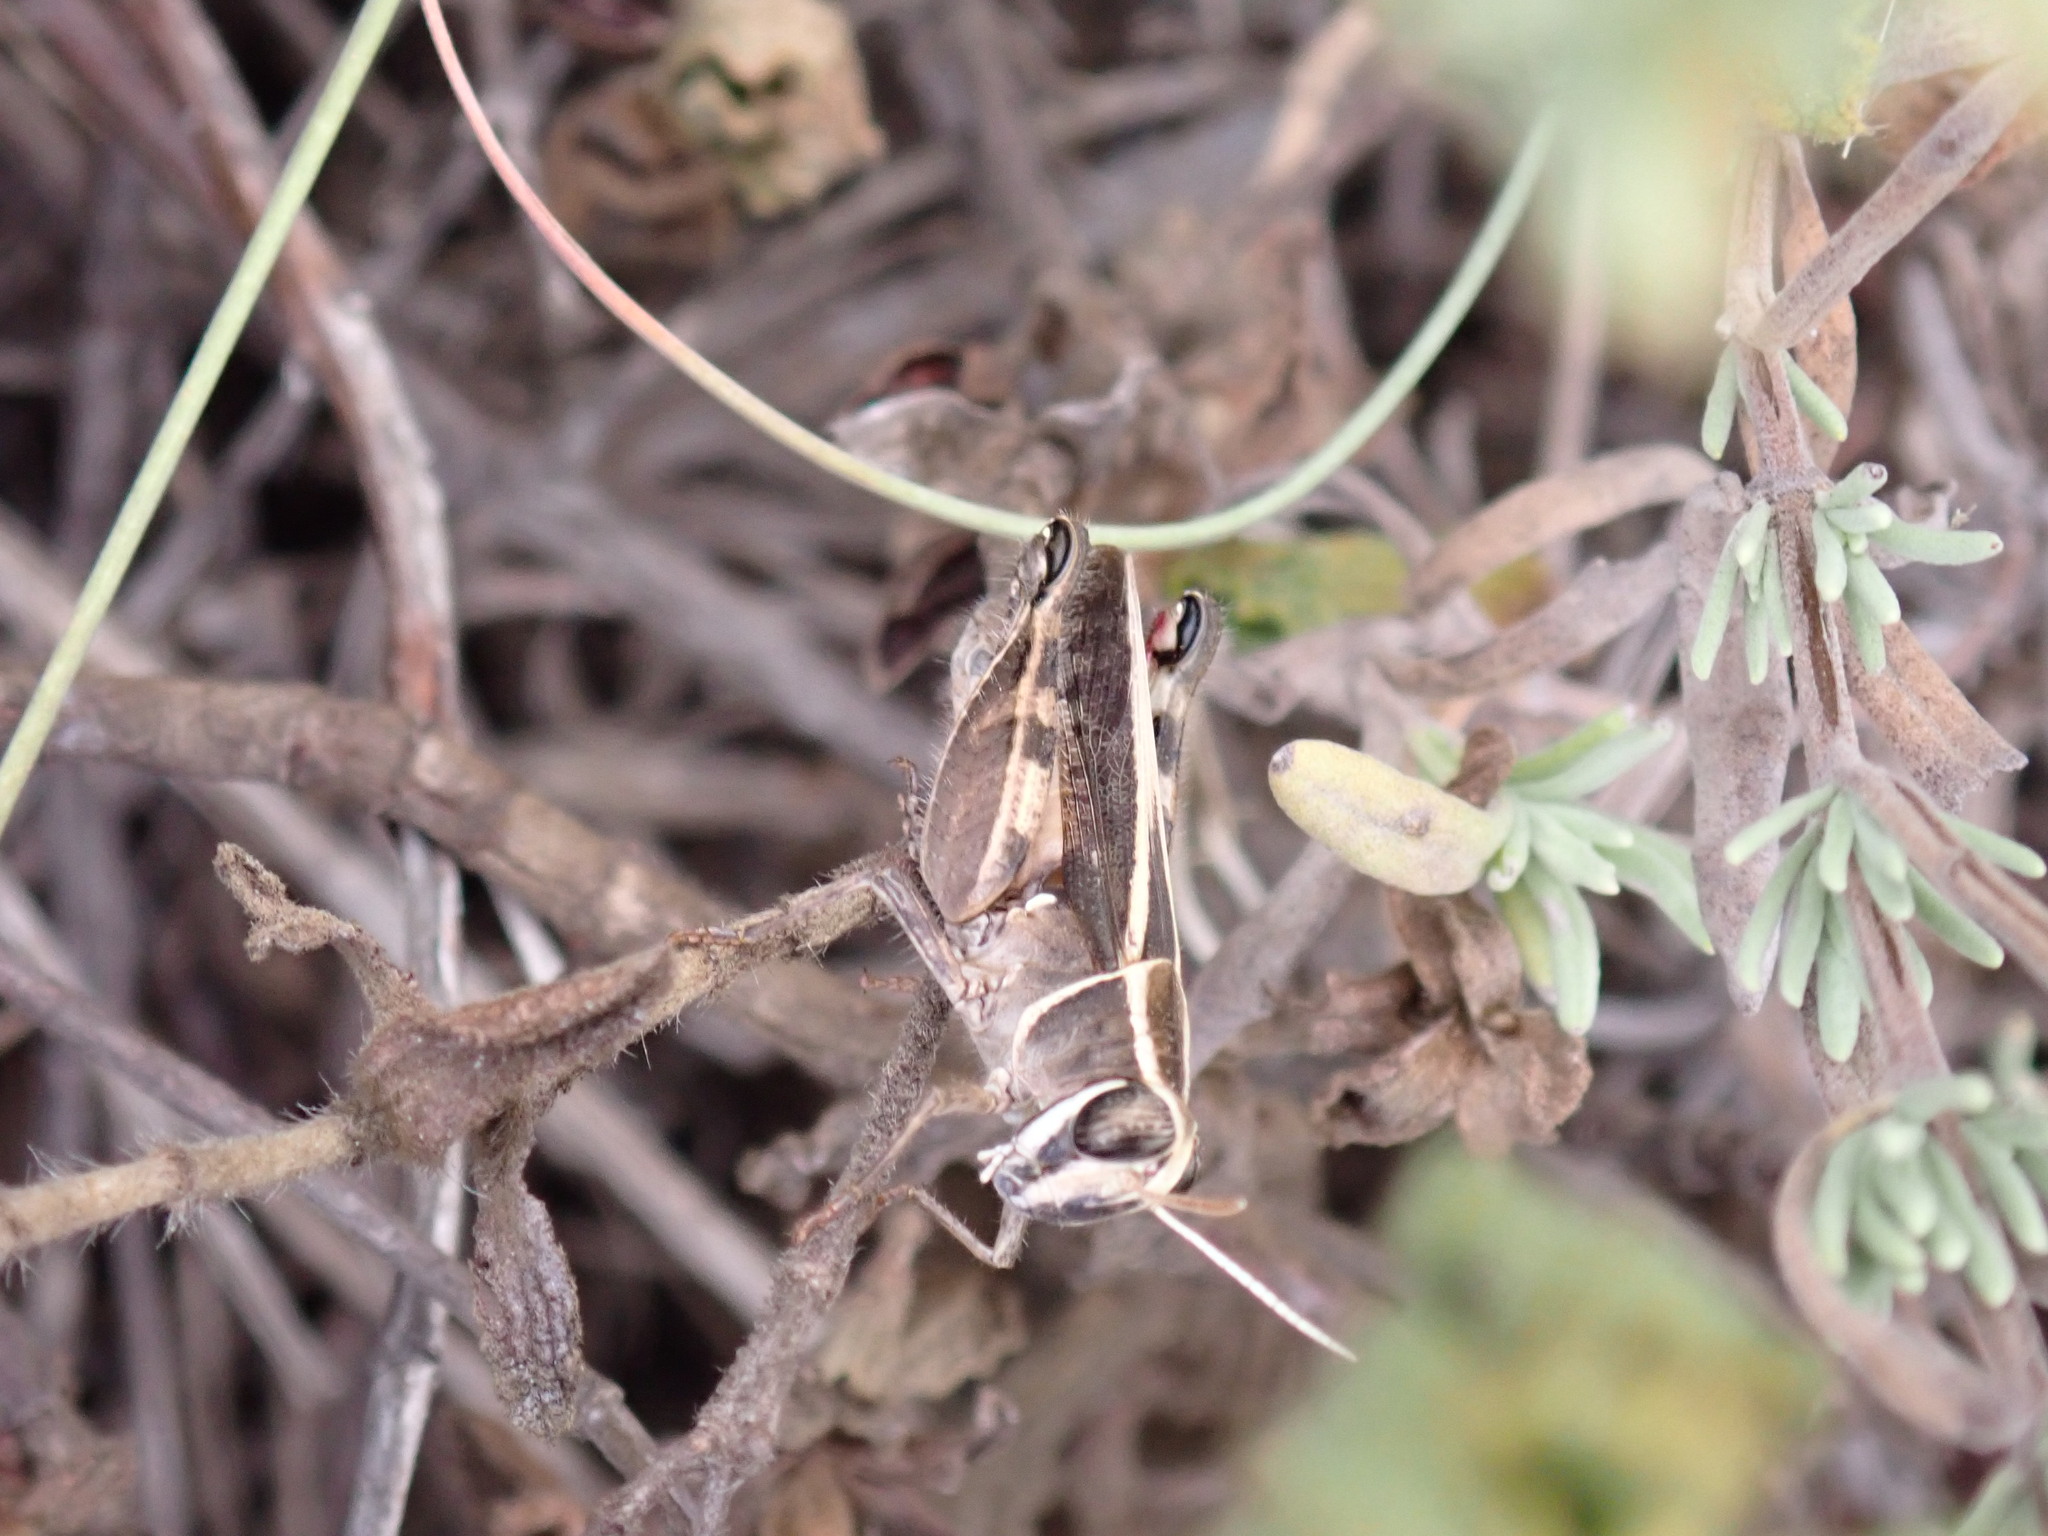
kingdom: Animalia
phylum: Arthropoda
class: Insecta
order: Orthoptera
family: Acrididae
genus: Calliptamus
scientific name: Calliptamus barbarus
